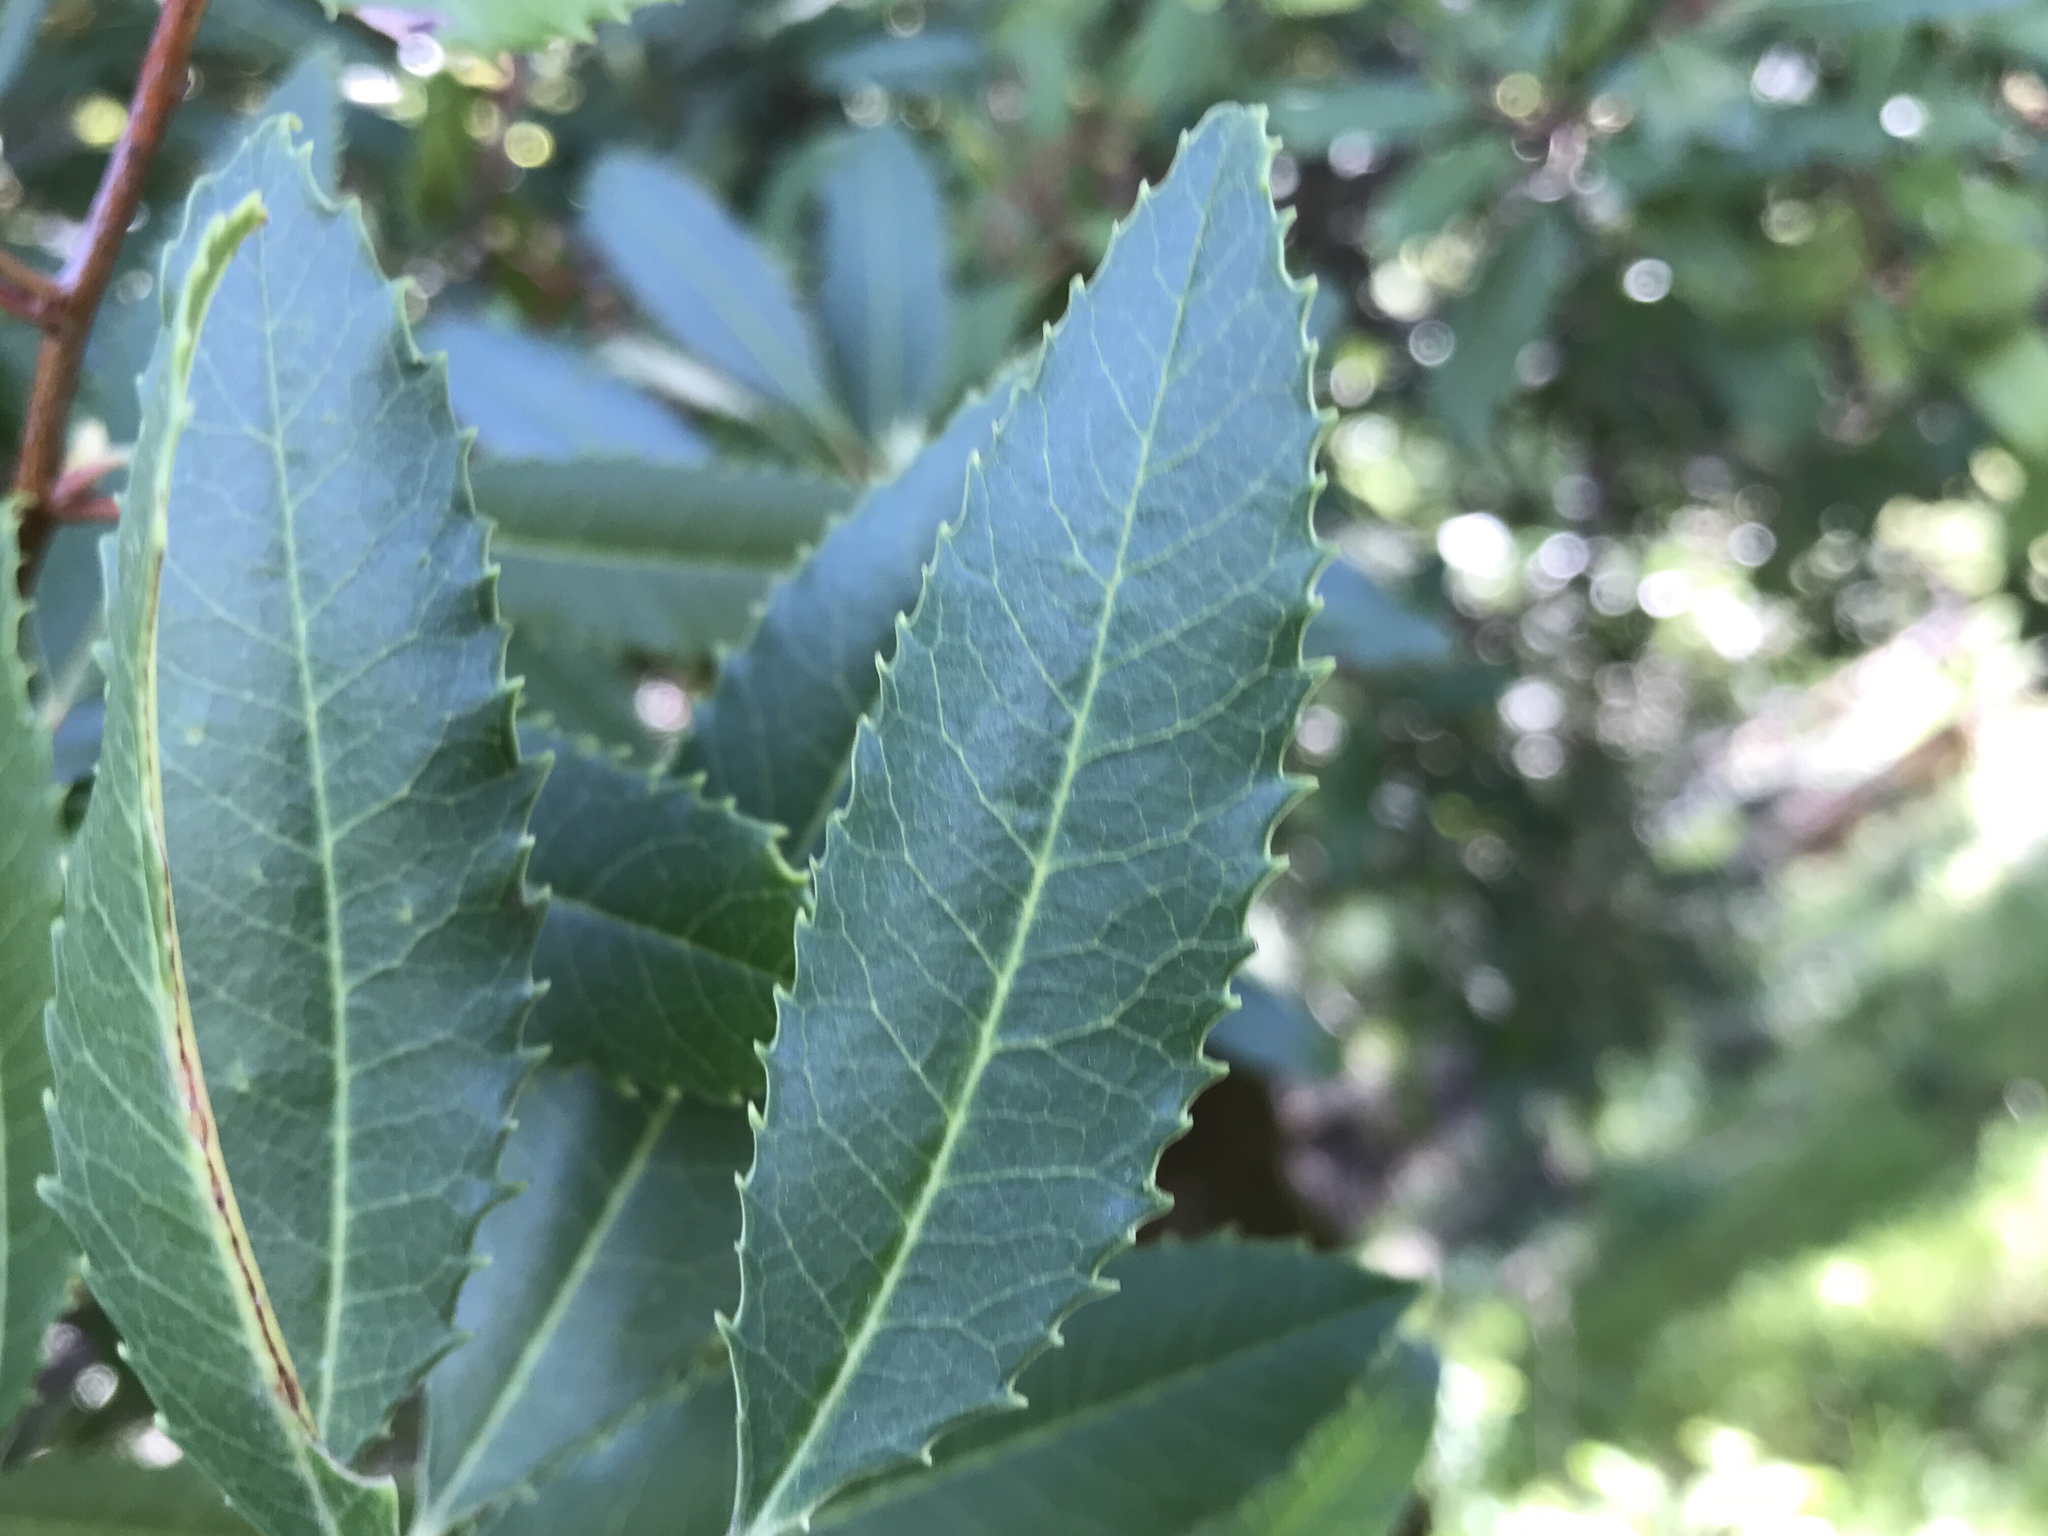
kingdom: Plantae
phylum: Tracheophyta
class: Magnoliopsida
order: Rosales
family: Rosaceae
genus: Heteromeles
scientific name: Heteromeles arbutifolia
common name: California-holly
